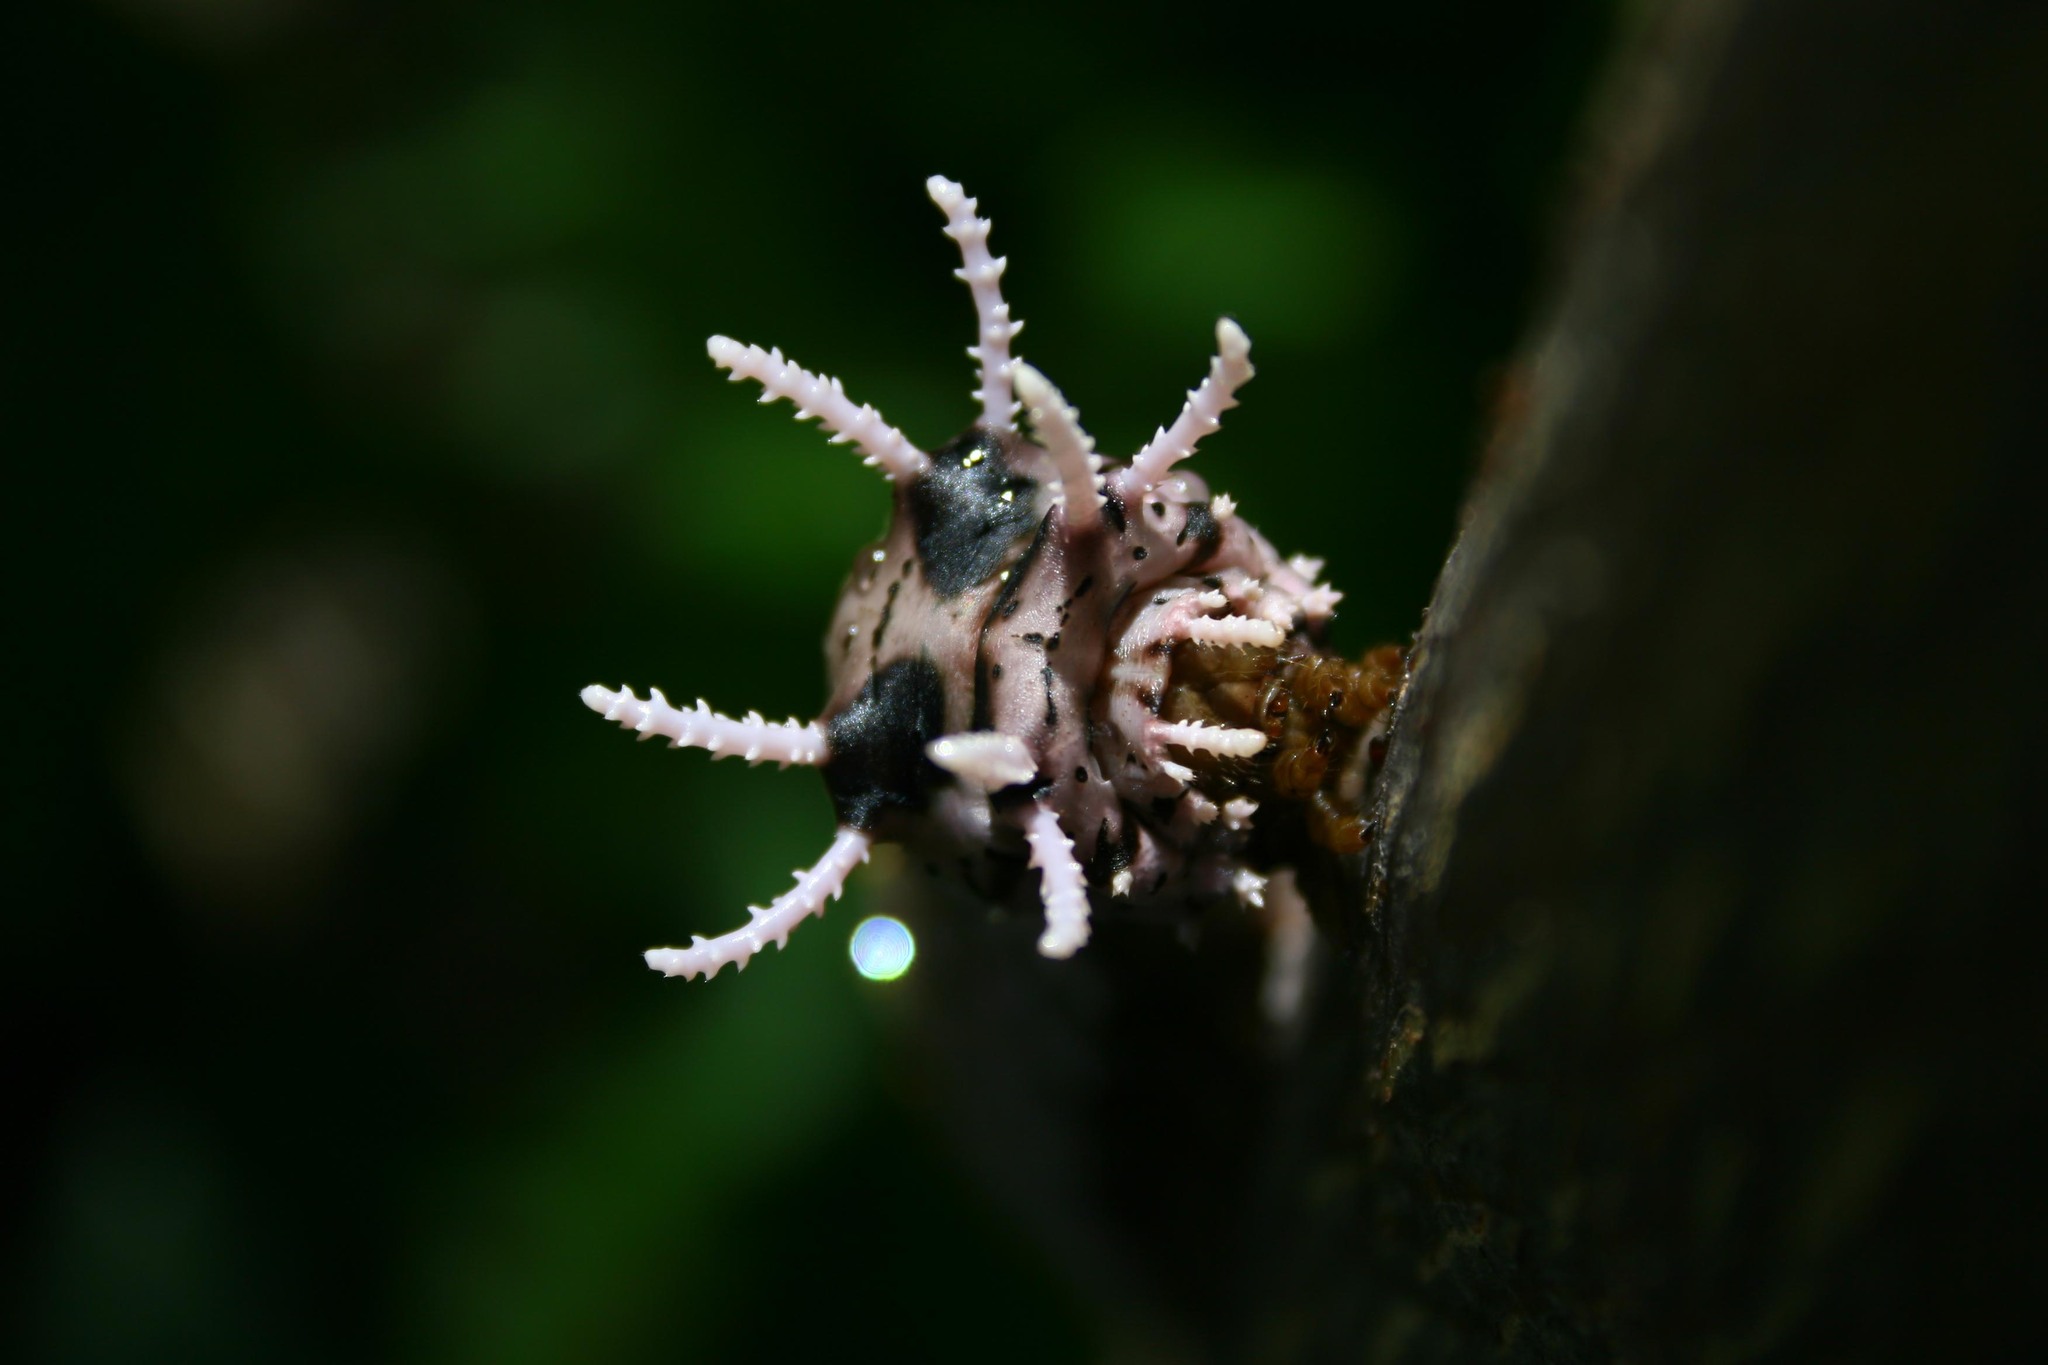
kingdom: Animalia
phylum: Arthropoda
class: Insecta
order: Lepidoptera
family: Saturniidae
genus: Citheronia
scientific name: Citheronia lobesis
